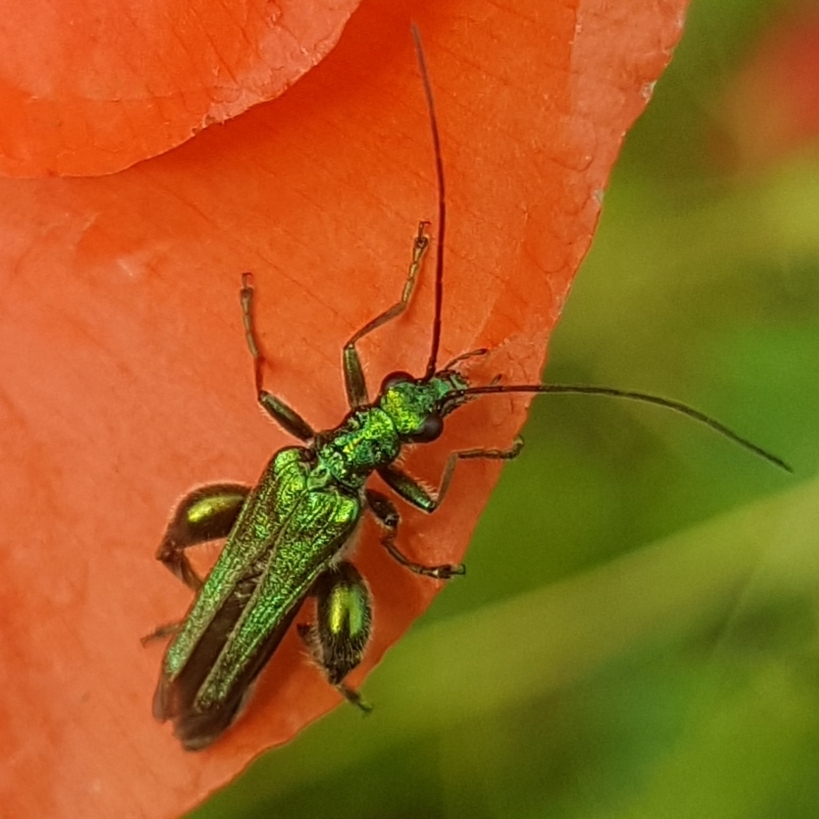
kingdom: Animalia
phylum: Arthropoda
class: Insecta
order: Coleoptera
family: Oedemeridae
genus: Oedemera
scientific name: Oedemera nobilis
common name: Swollen-thighed beetle
